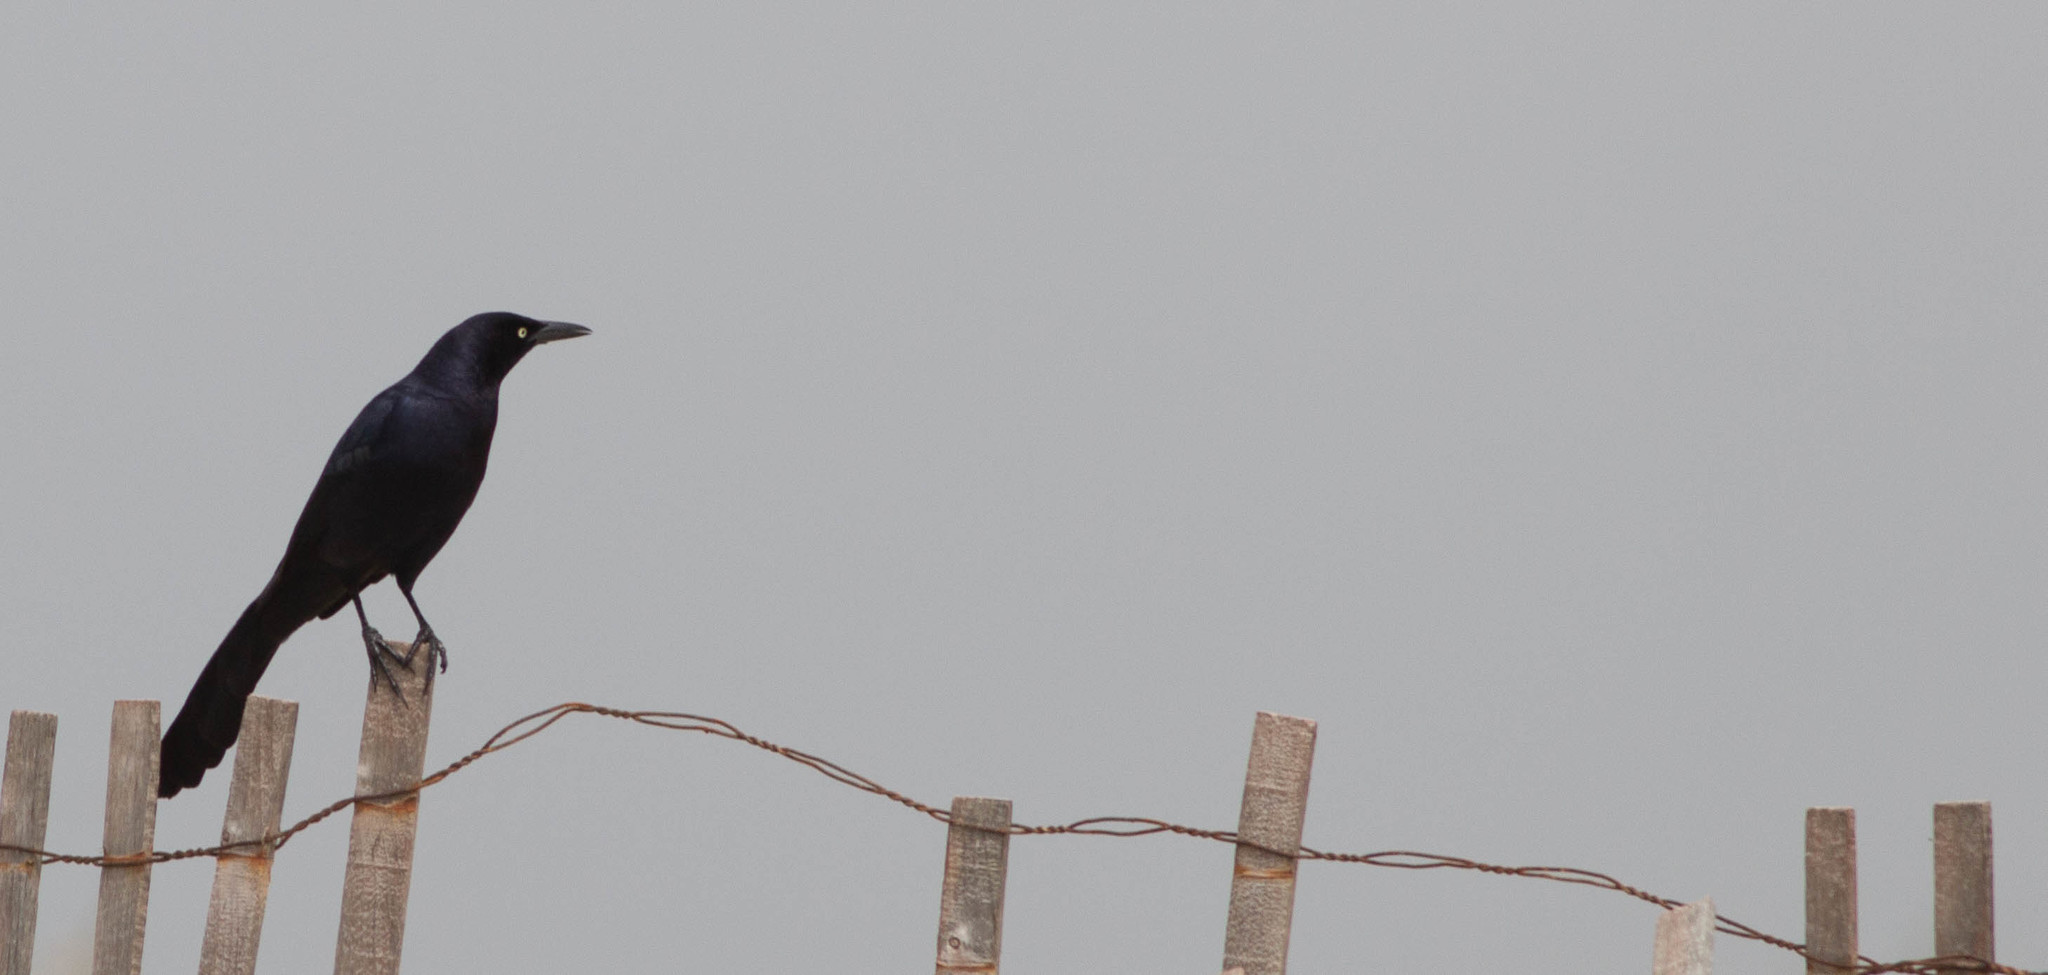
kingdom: Animalia
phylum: Chordata
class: Aves
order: Passeriformes
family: Icteridae
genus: Quiscalus
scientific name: Quiscalus mexicanus
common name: Great-tailed grackle
